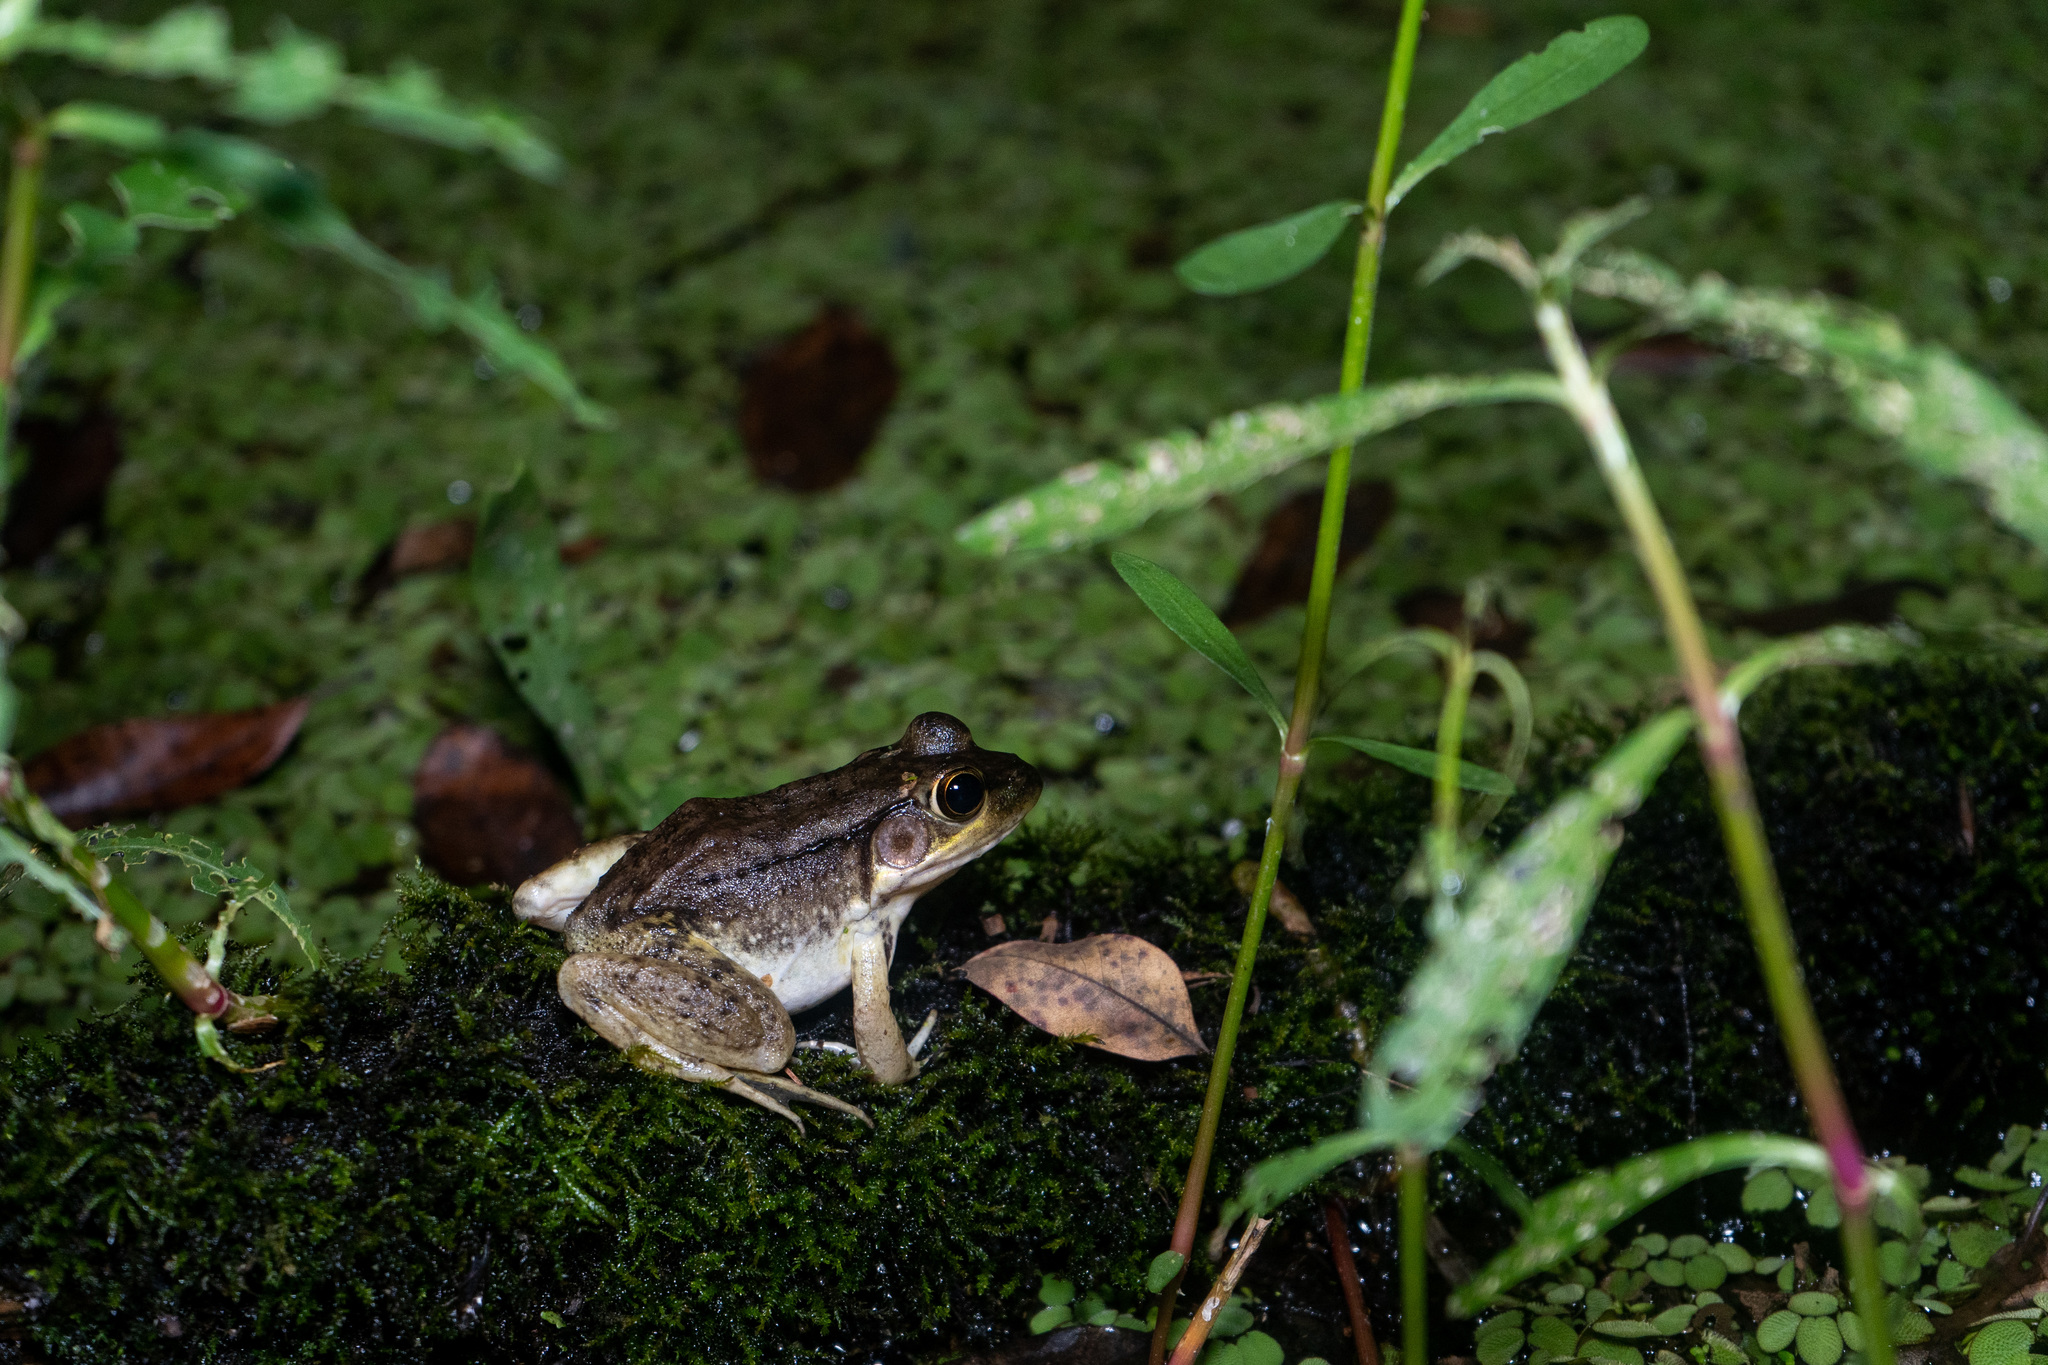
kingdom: Animalia
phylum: Chordata
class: Amphibia
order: Anura
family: Ranidae
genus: Lithobates
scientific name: Lithobates clamitans
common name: Green frog
